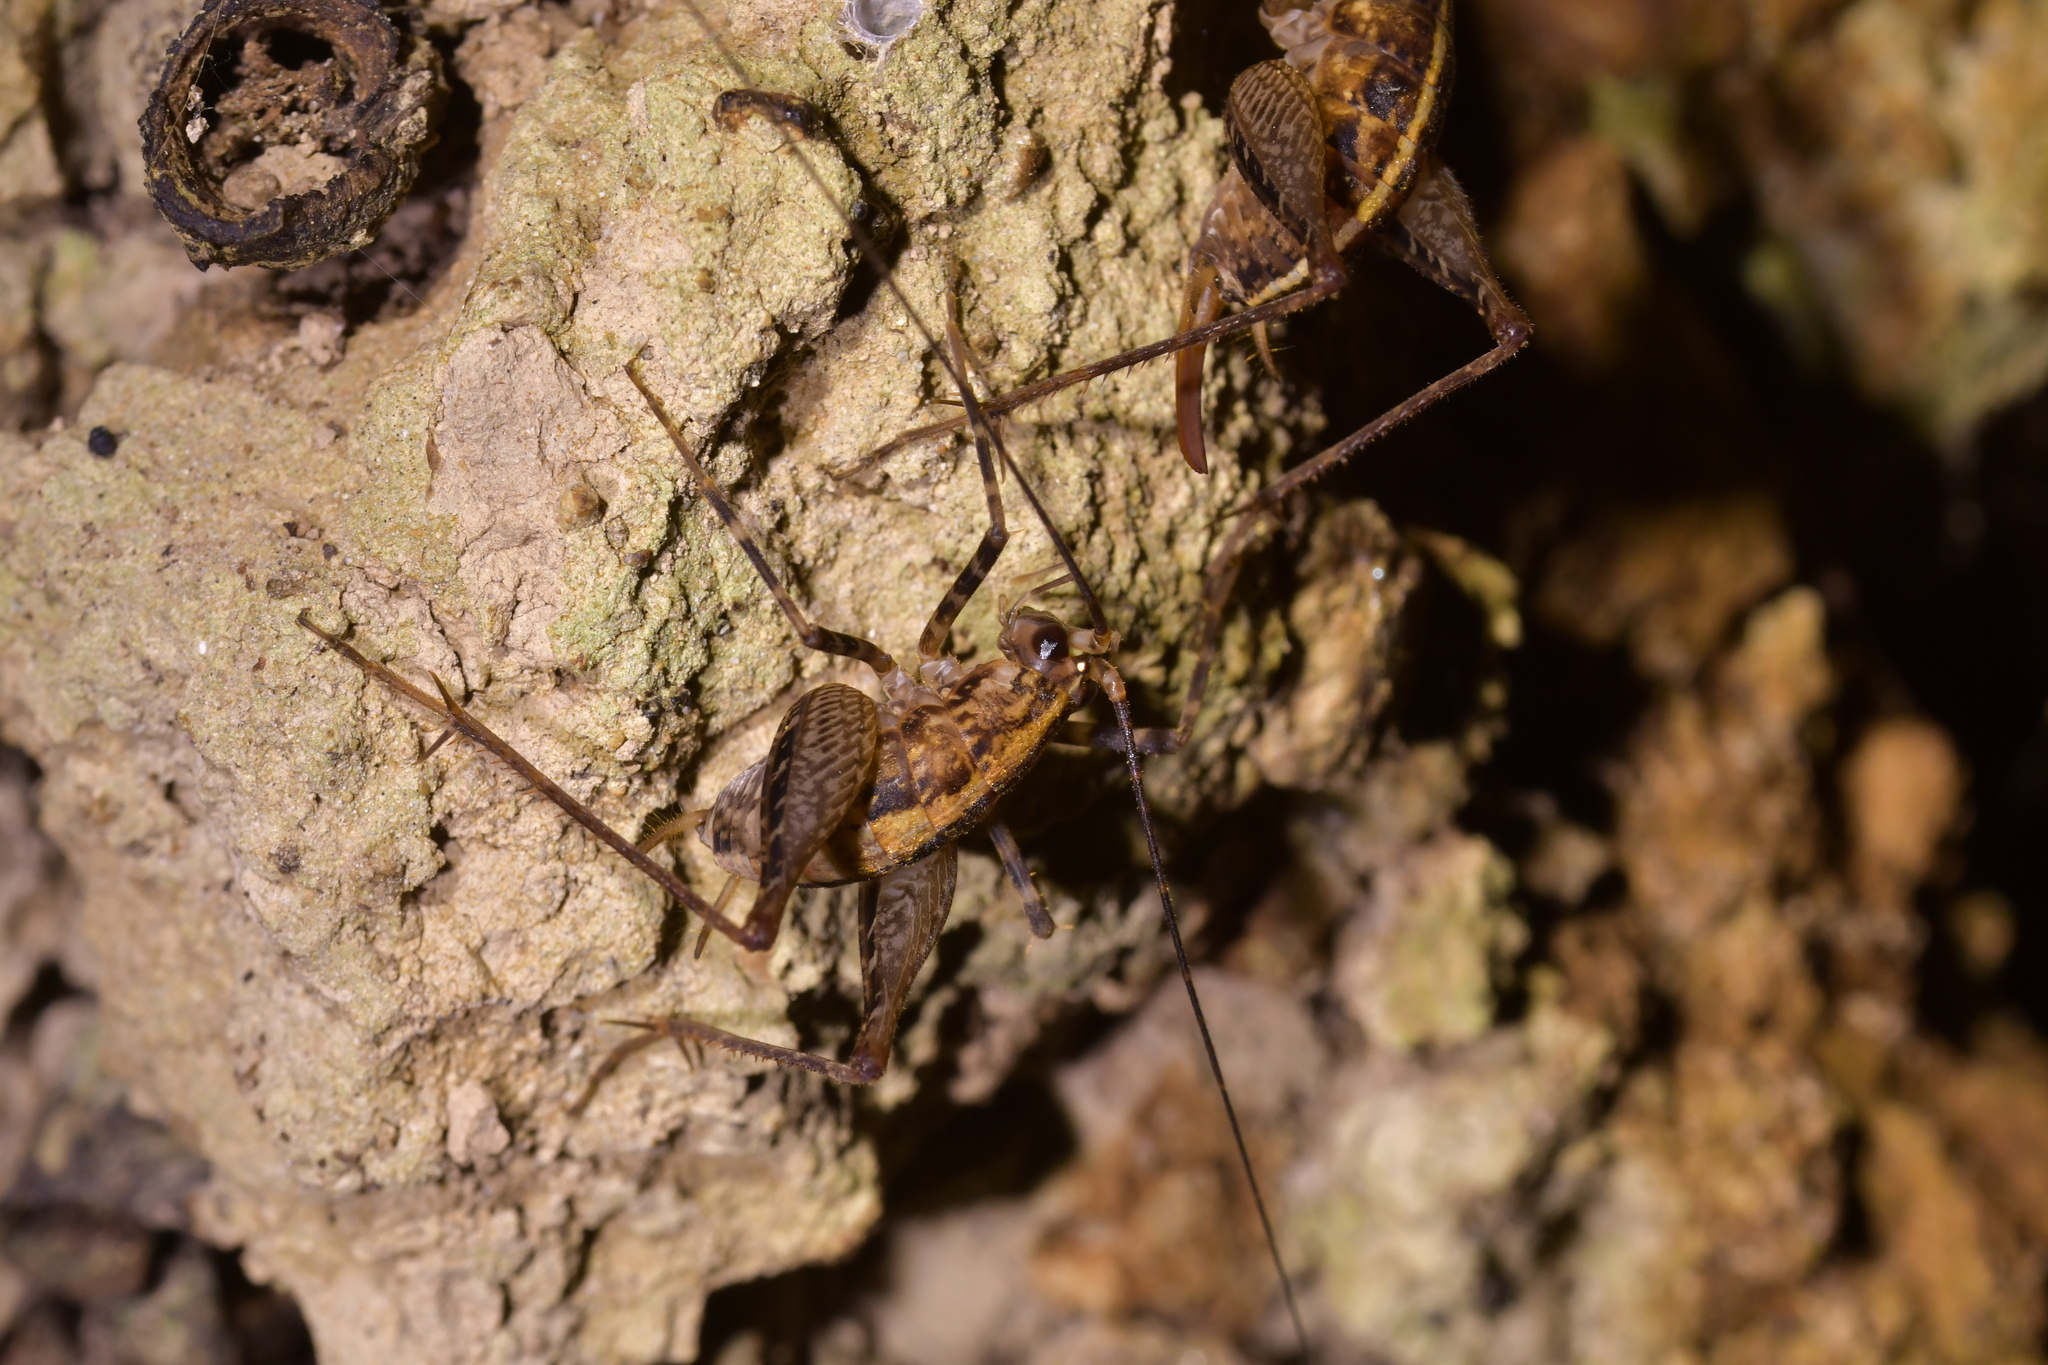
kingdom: Animalia
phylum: Arthropoda
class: Insecta
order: Orthoptera
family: Rhaphidophoridae
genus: Pleioplectron
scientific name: Pleioplectron hudsoni
